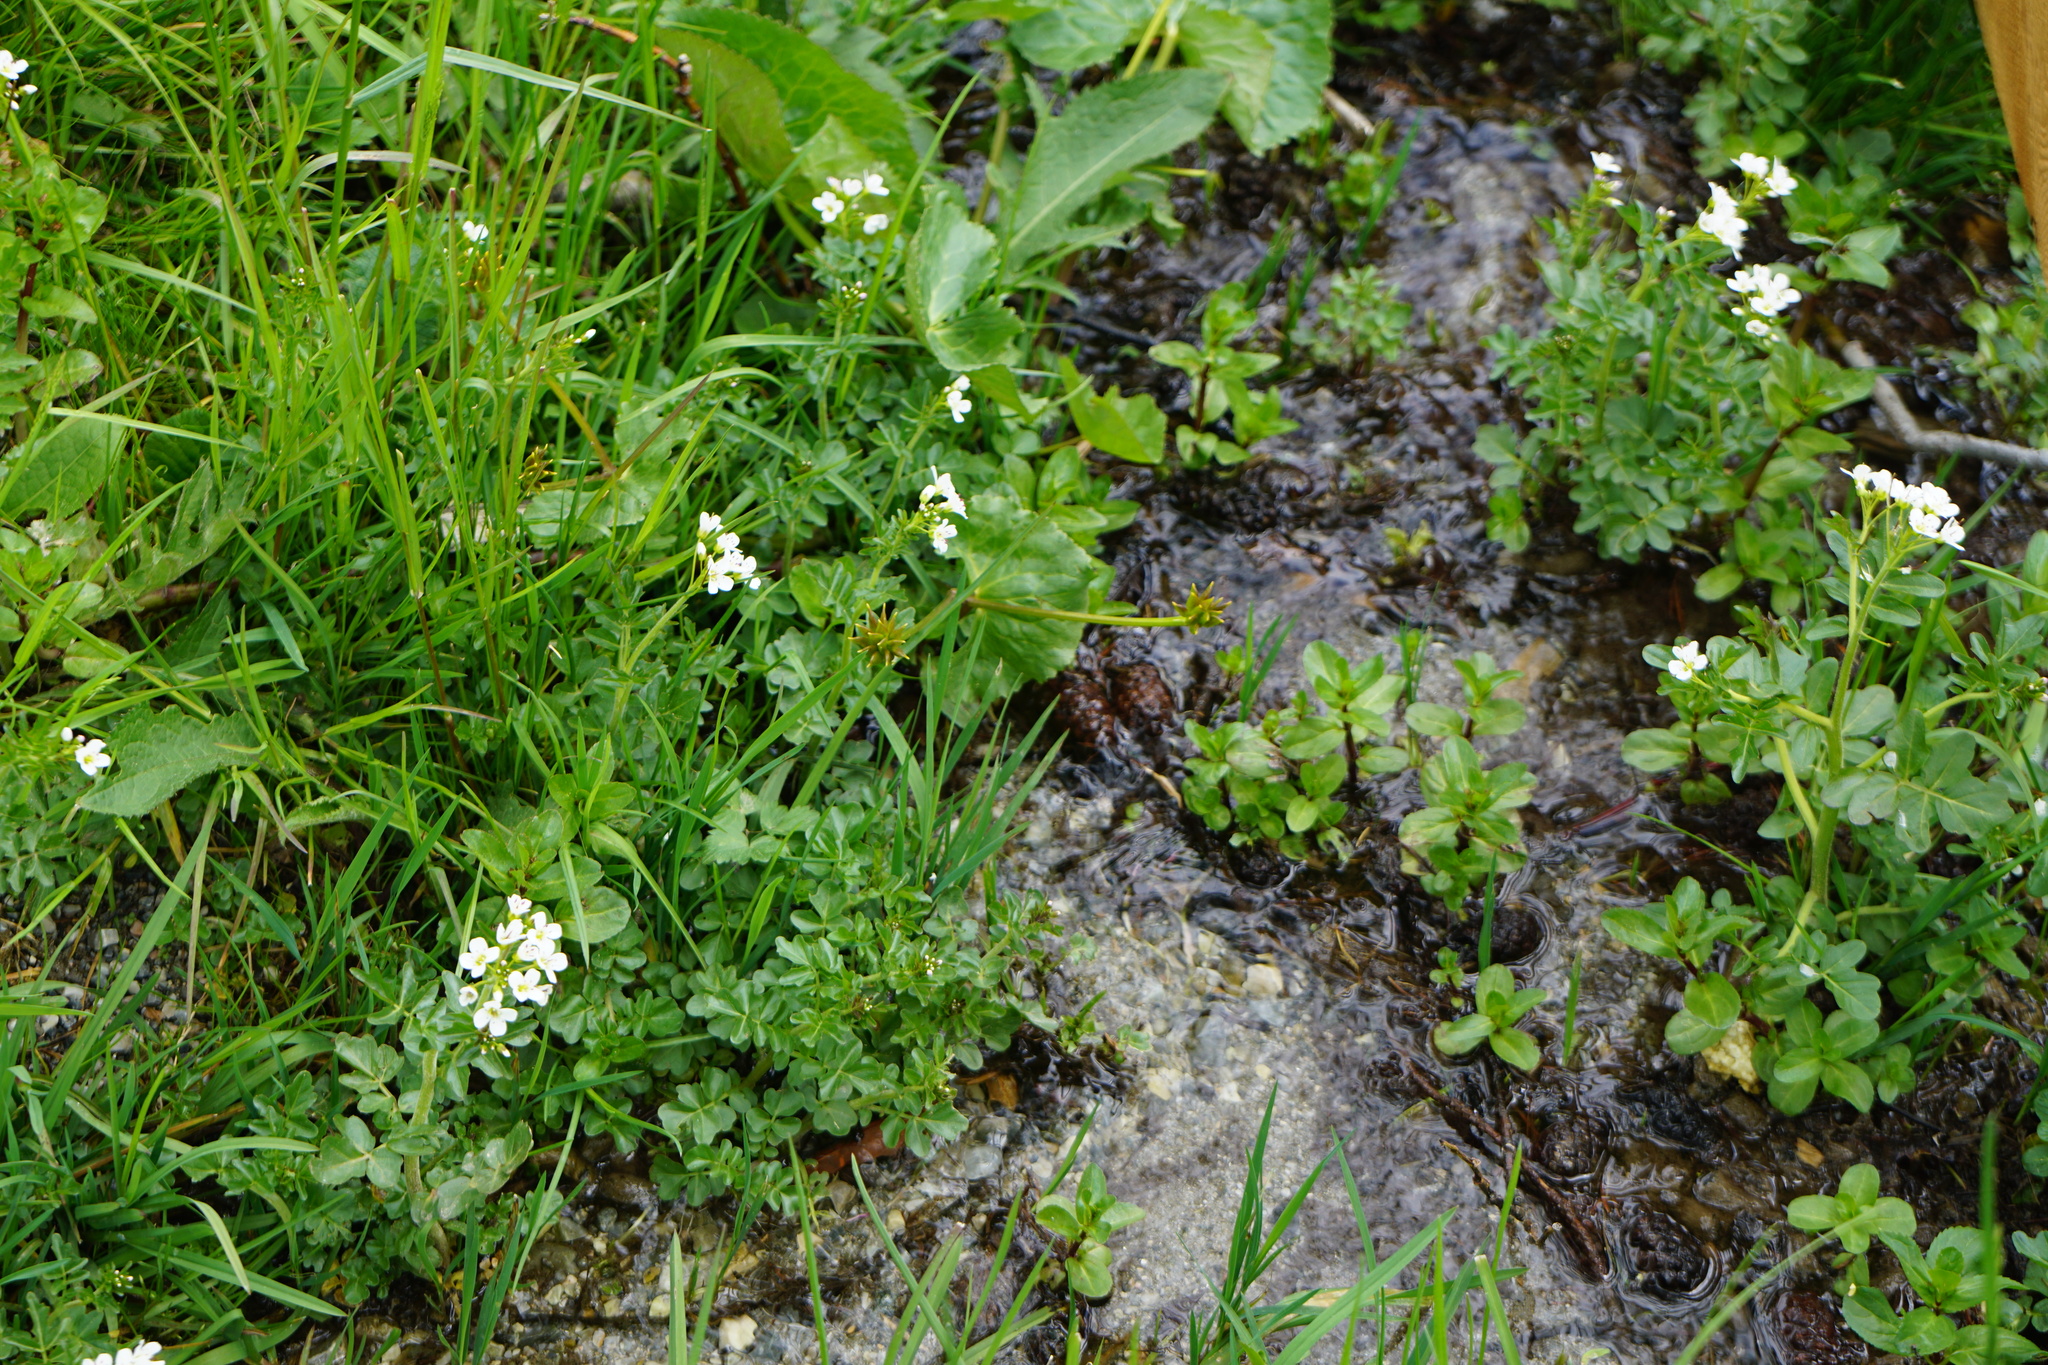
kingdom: Plantae
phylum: Tracheophyta
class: Magnoliopsida
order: Brassicales
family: Brassicaceae
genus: Cardamine
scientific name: Cardamine amara
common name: Large bitter-cress
